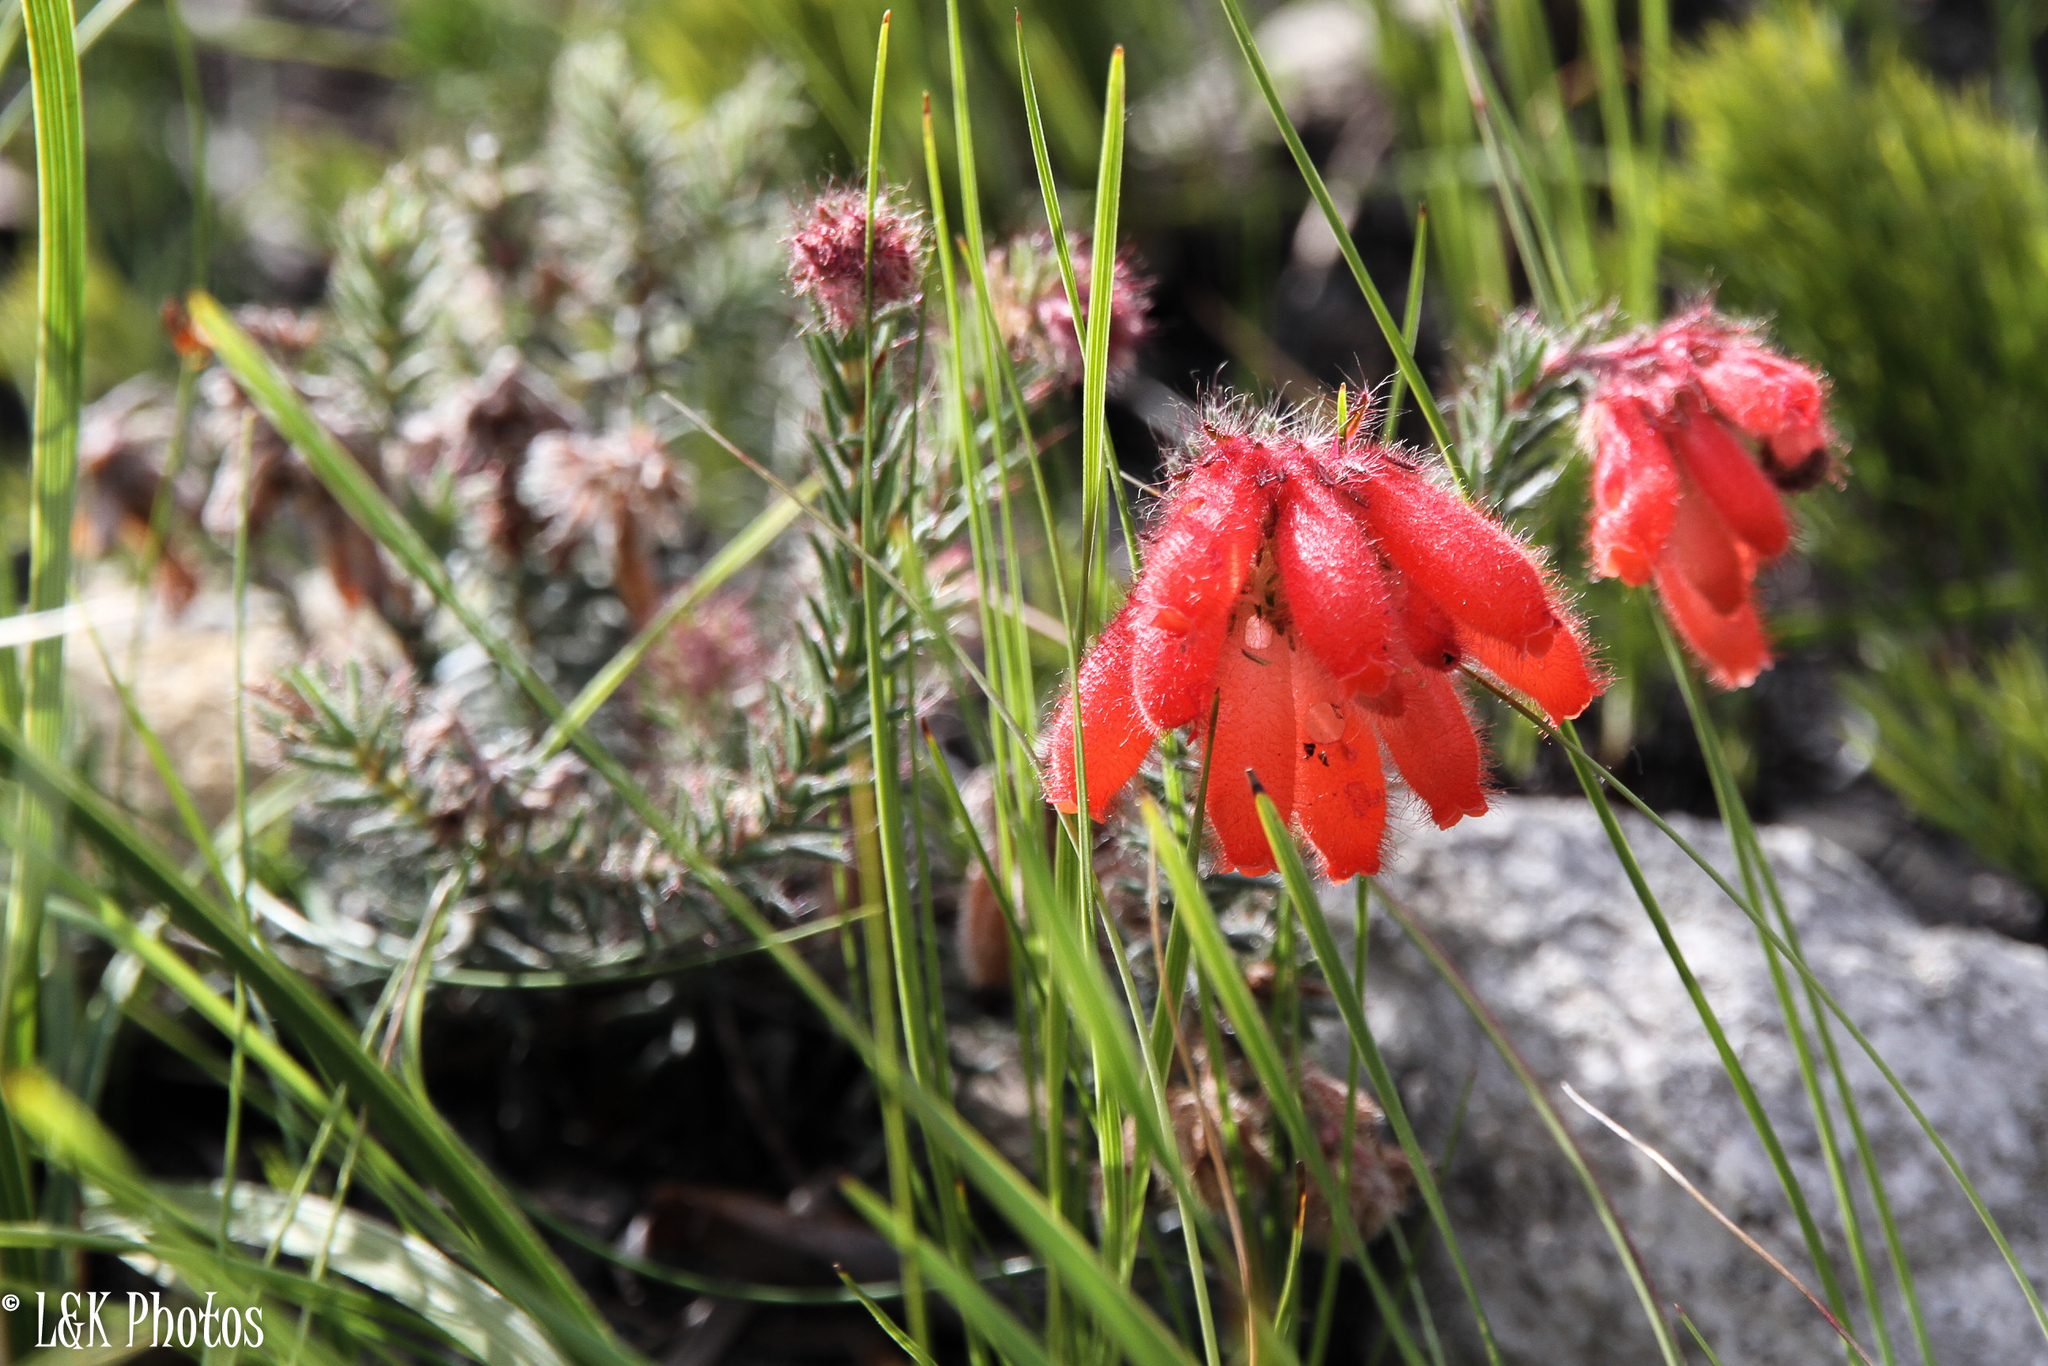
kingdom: Plantae
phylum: Tracheophyta
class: Magnoliopsida
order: Ericales
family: Ericaceae
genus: Erica
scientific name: Erica cerinthoides
